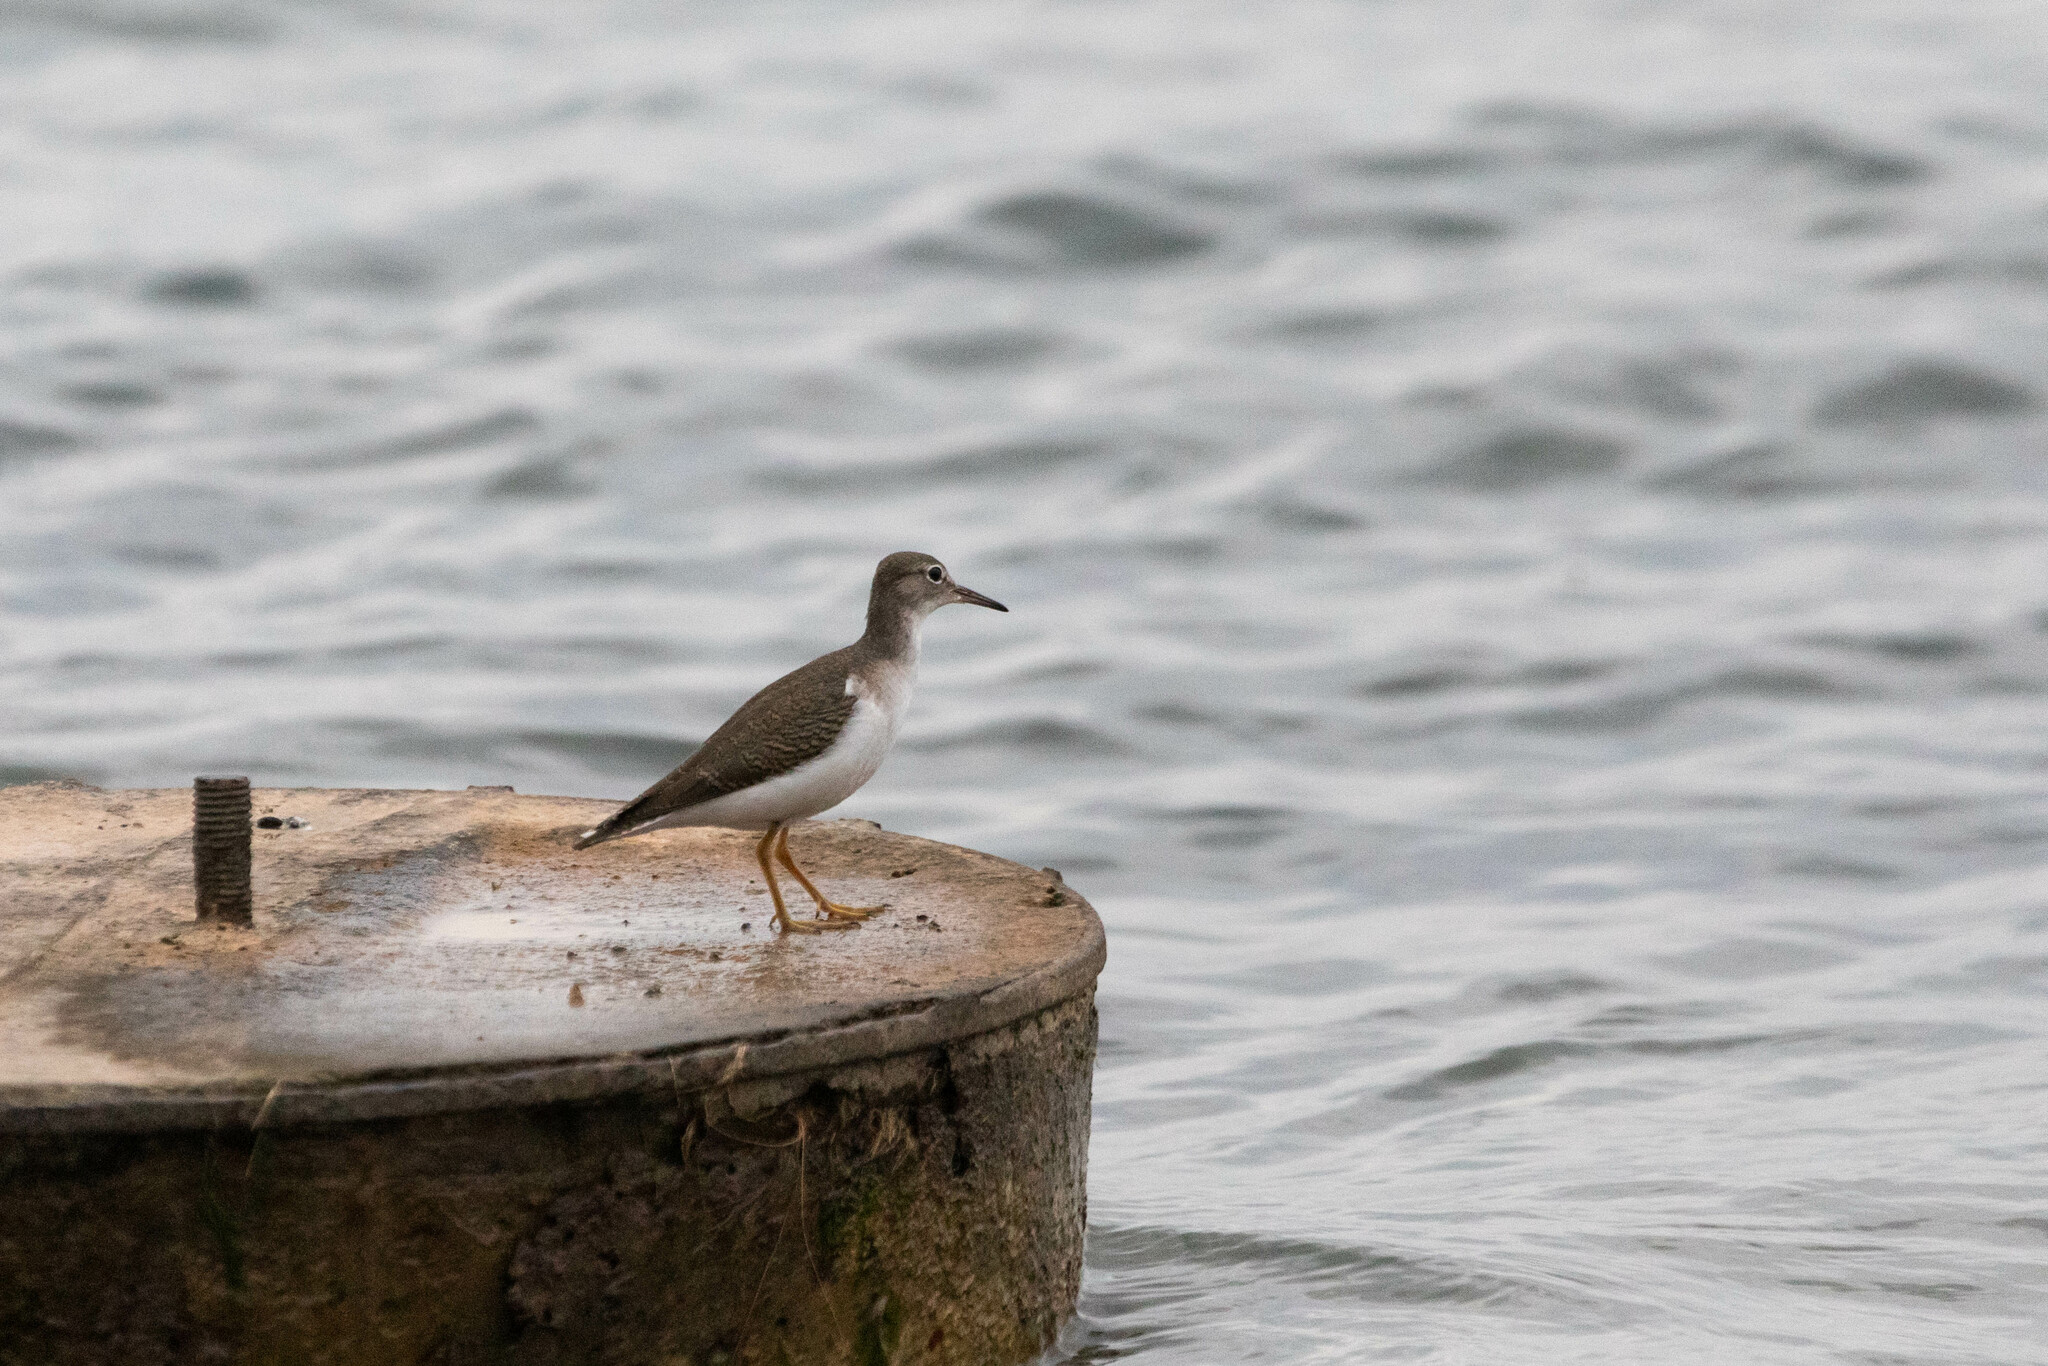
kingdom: Animalia
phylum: Chordata
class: Aves
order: Charadriiformes
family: Scolopacidae
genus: Actitis
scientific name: Actitis macularius
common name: Spotted sandpiper
